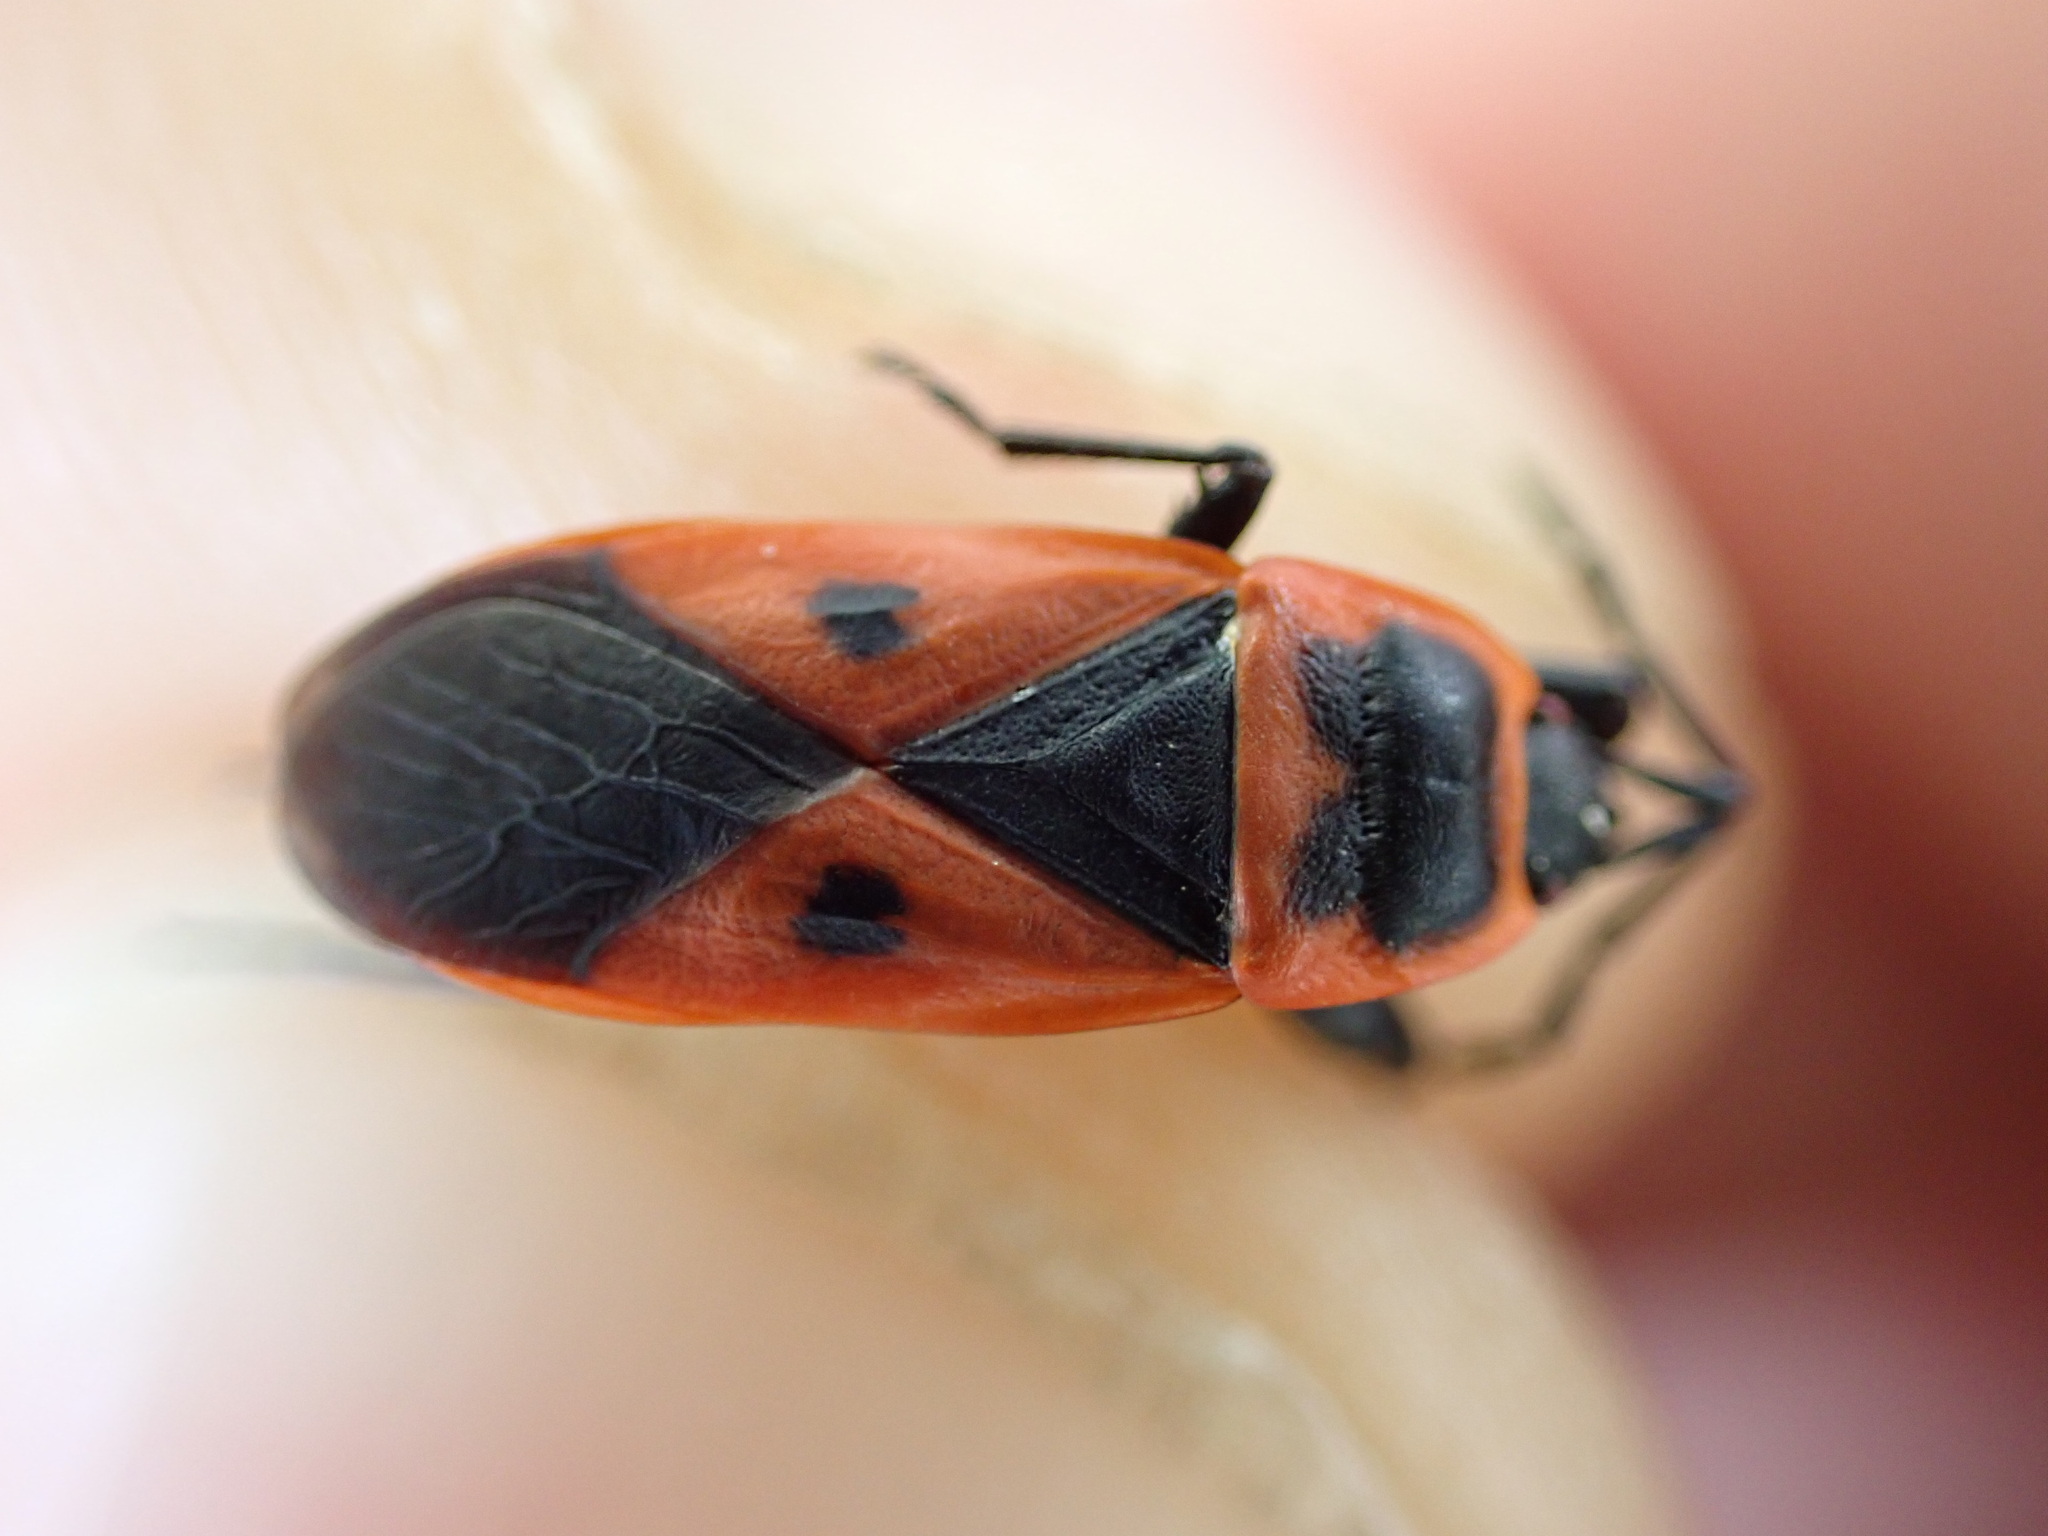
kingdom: Animalia
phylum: Arthropoda
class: Insecta
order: Hemiptera
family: Pyrrhocoridae
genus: Scantius
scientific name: Scantius aegyptius
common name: Red bug
